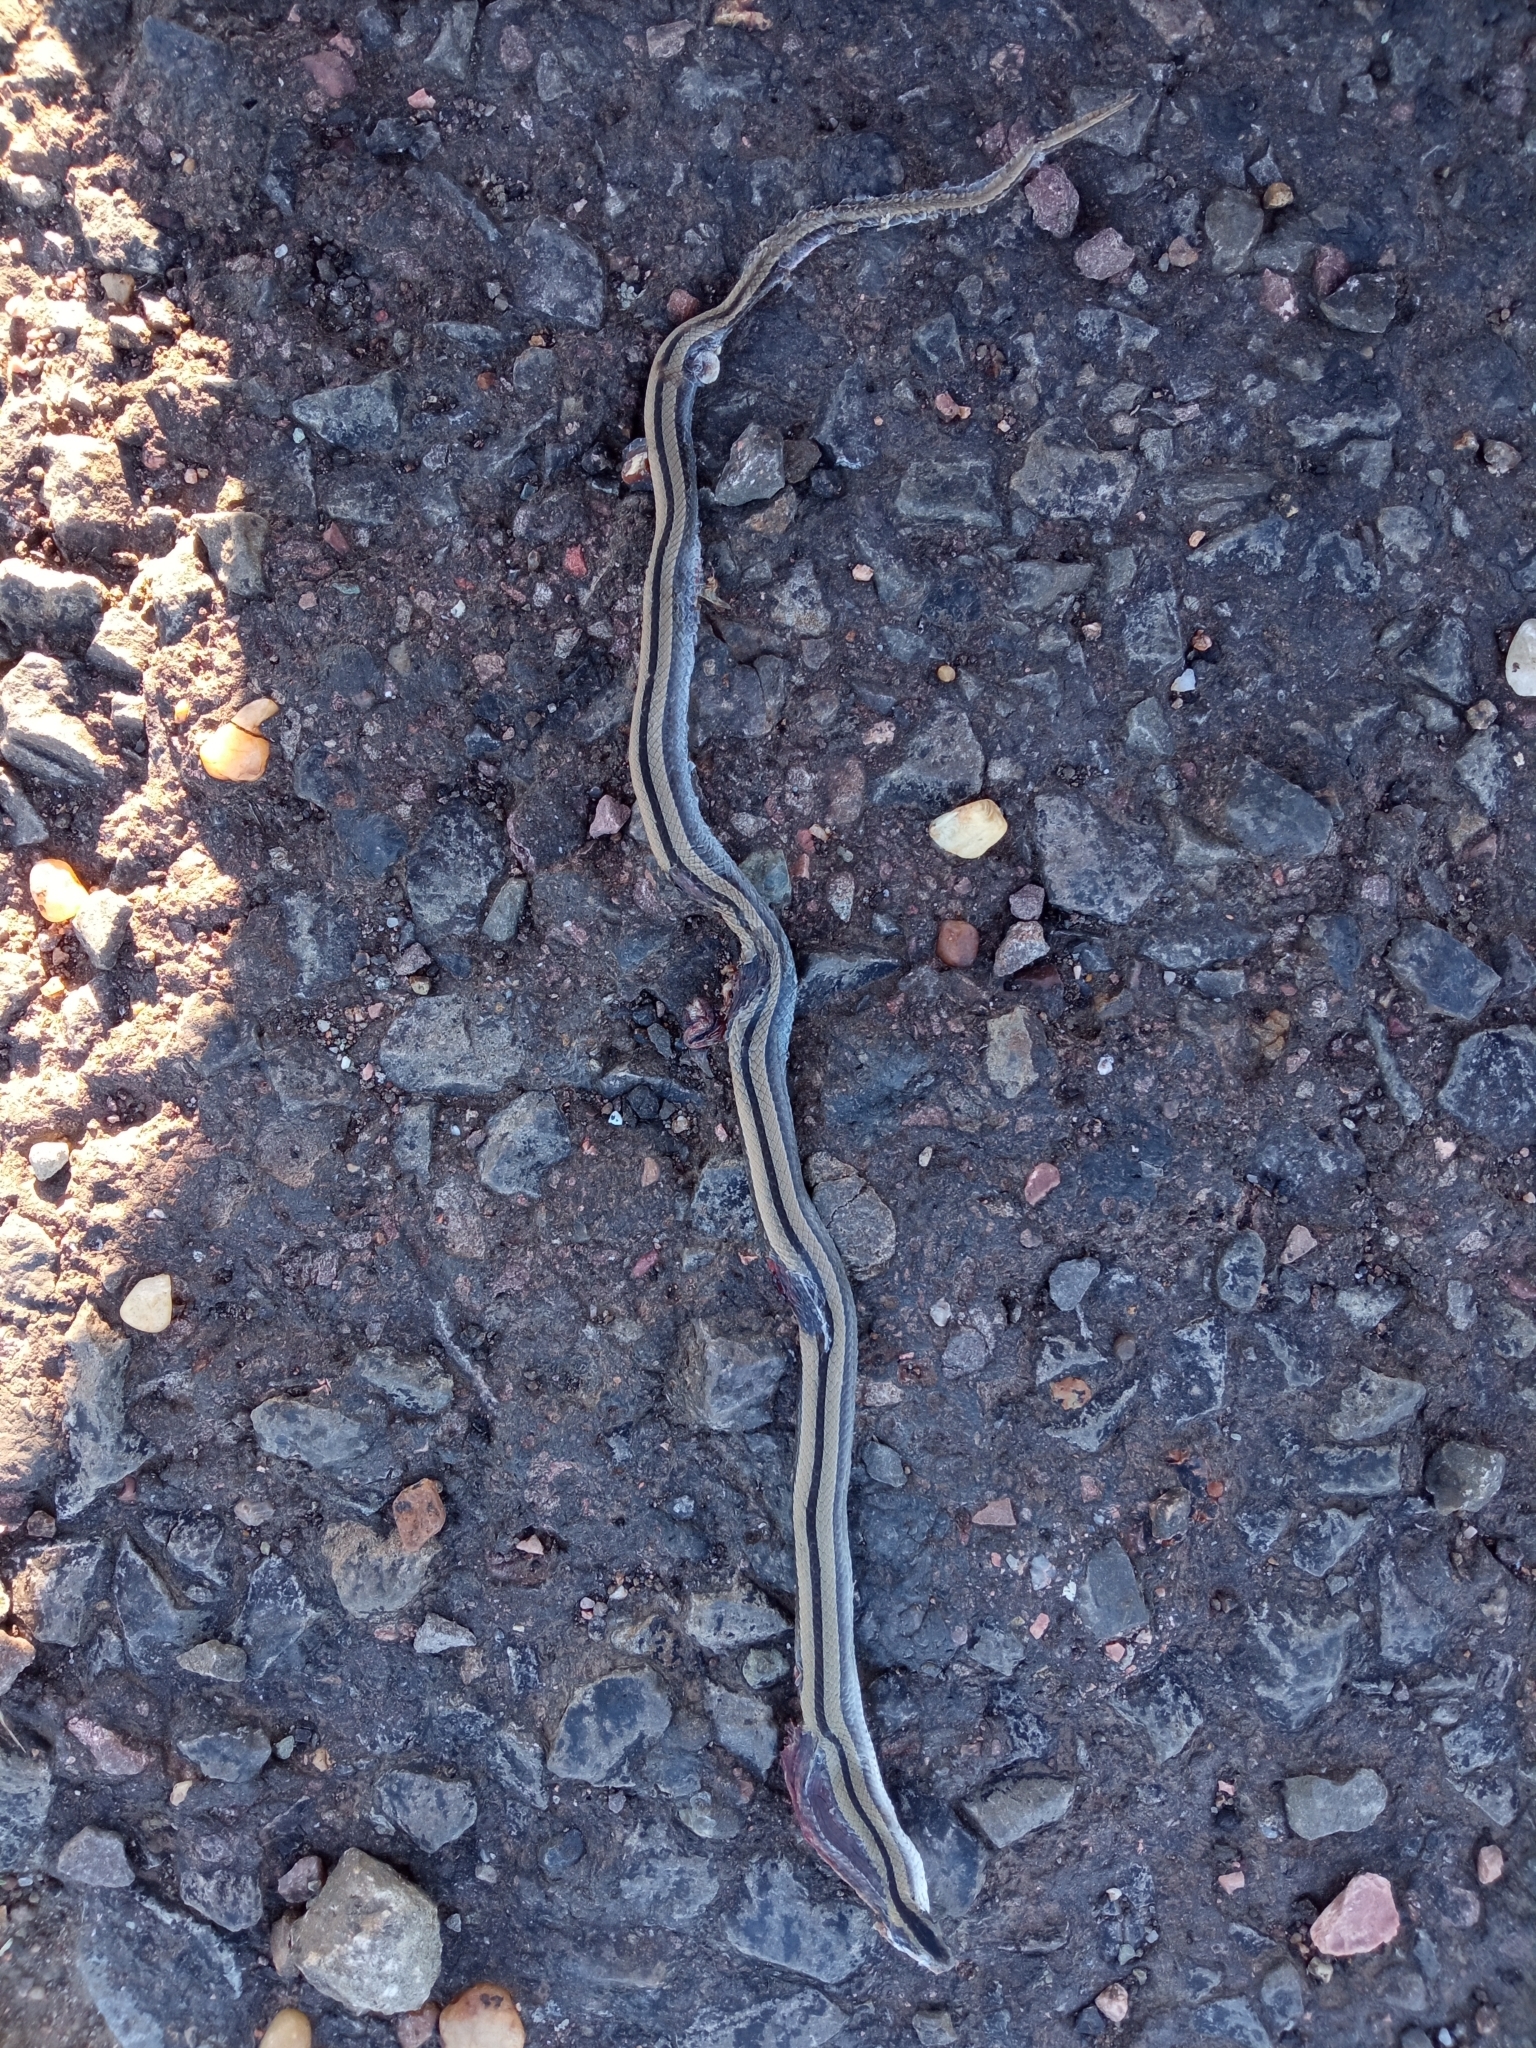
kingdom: Animalia
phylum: Chordata
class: Squamata
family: Colubridae
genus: Psomophis
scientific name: Psomophis obtusus
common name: Wide ground snake
